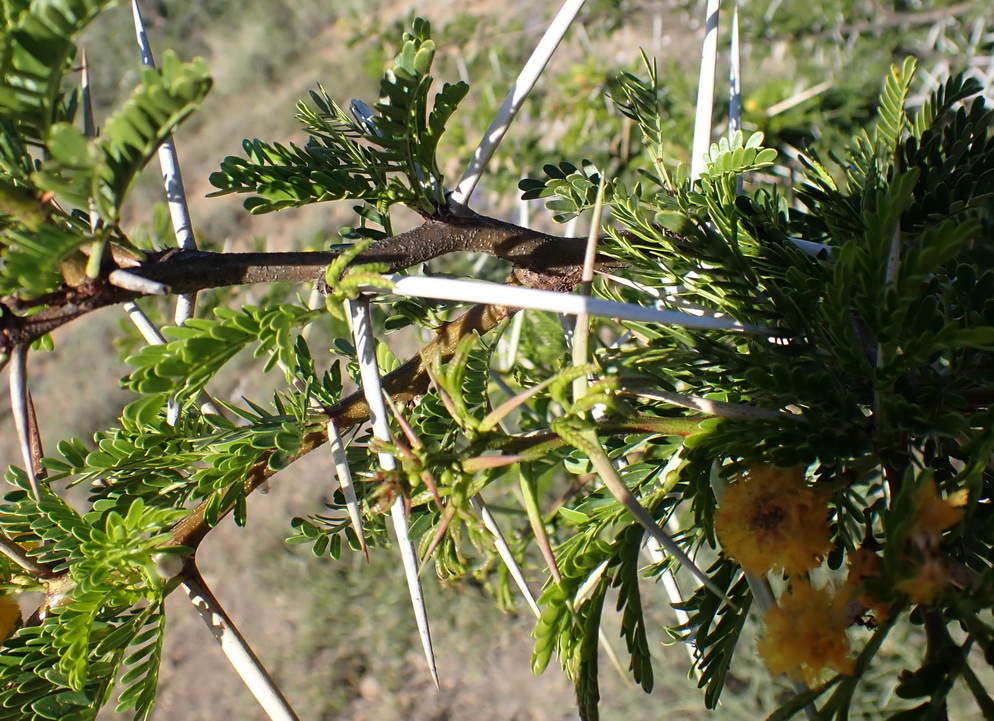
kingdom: Plantae
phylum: Tracheophyta
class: Magnoliopsida
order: Fabales
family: Fabaceae
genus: Vachellia
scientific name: Vachellia karroo
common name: Sweet thorn
